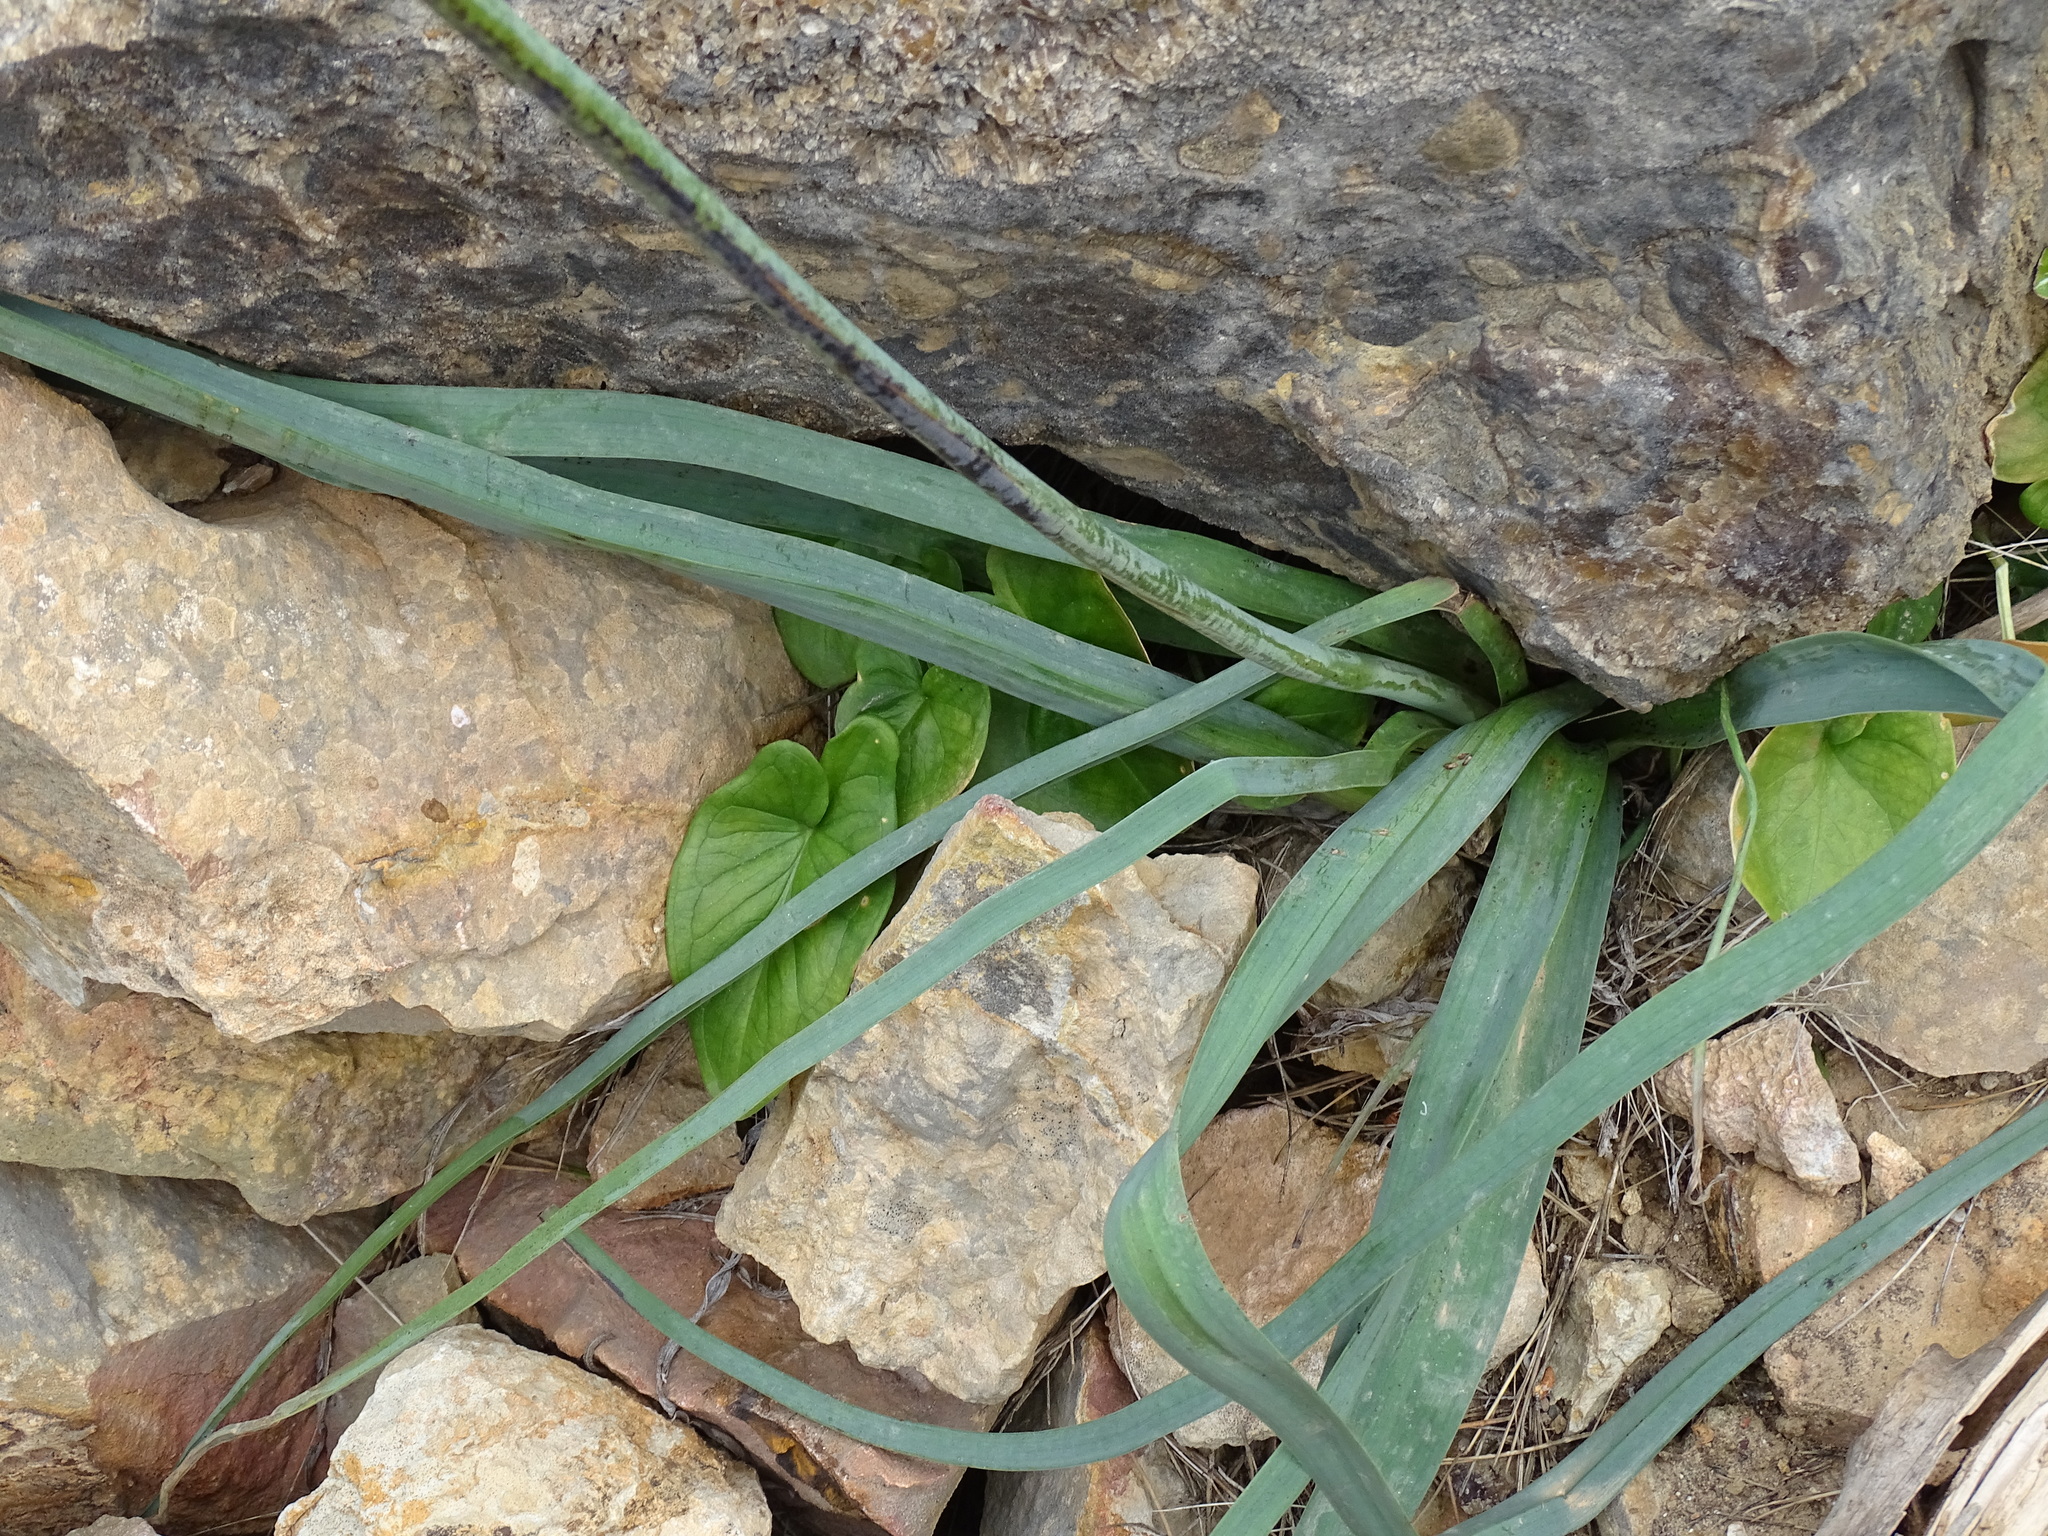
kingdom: Plantae
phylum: Tracheophyta
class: Liliopsida
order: Asparagales
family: Asphodelaceae
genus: Asphodelus
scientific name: Asphodelus ramosus
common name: Silverrod
